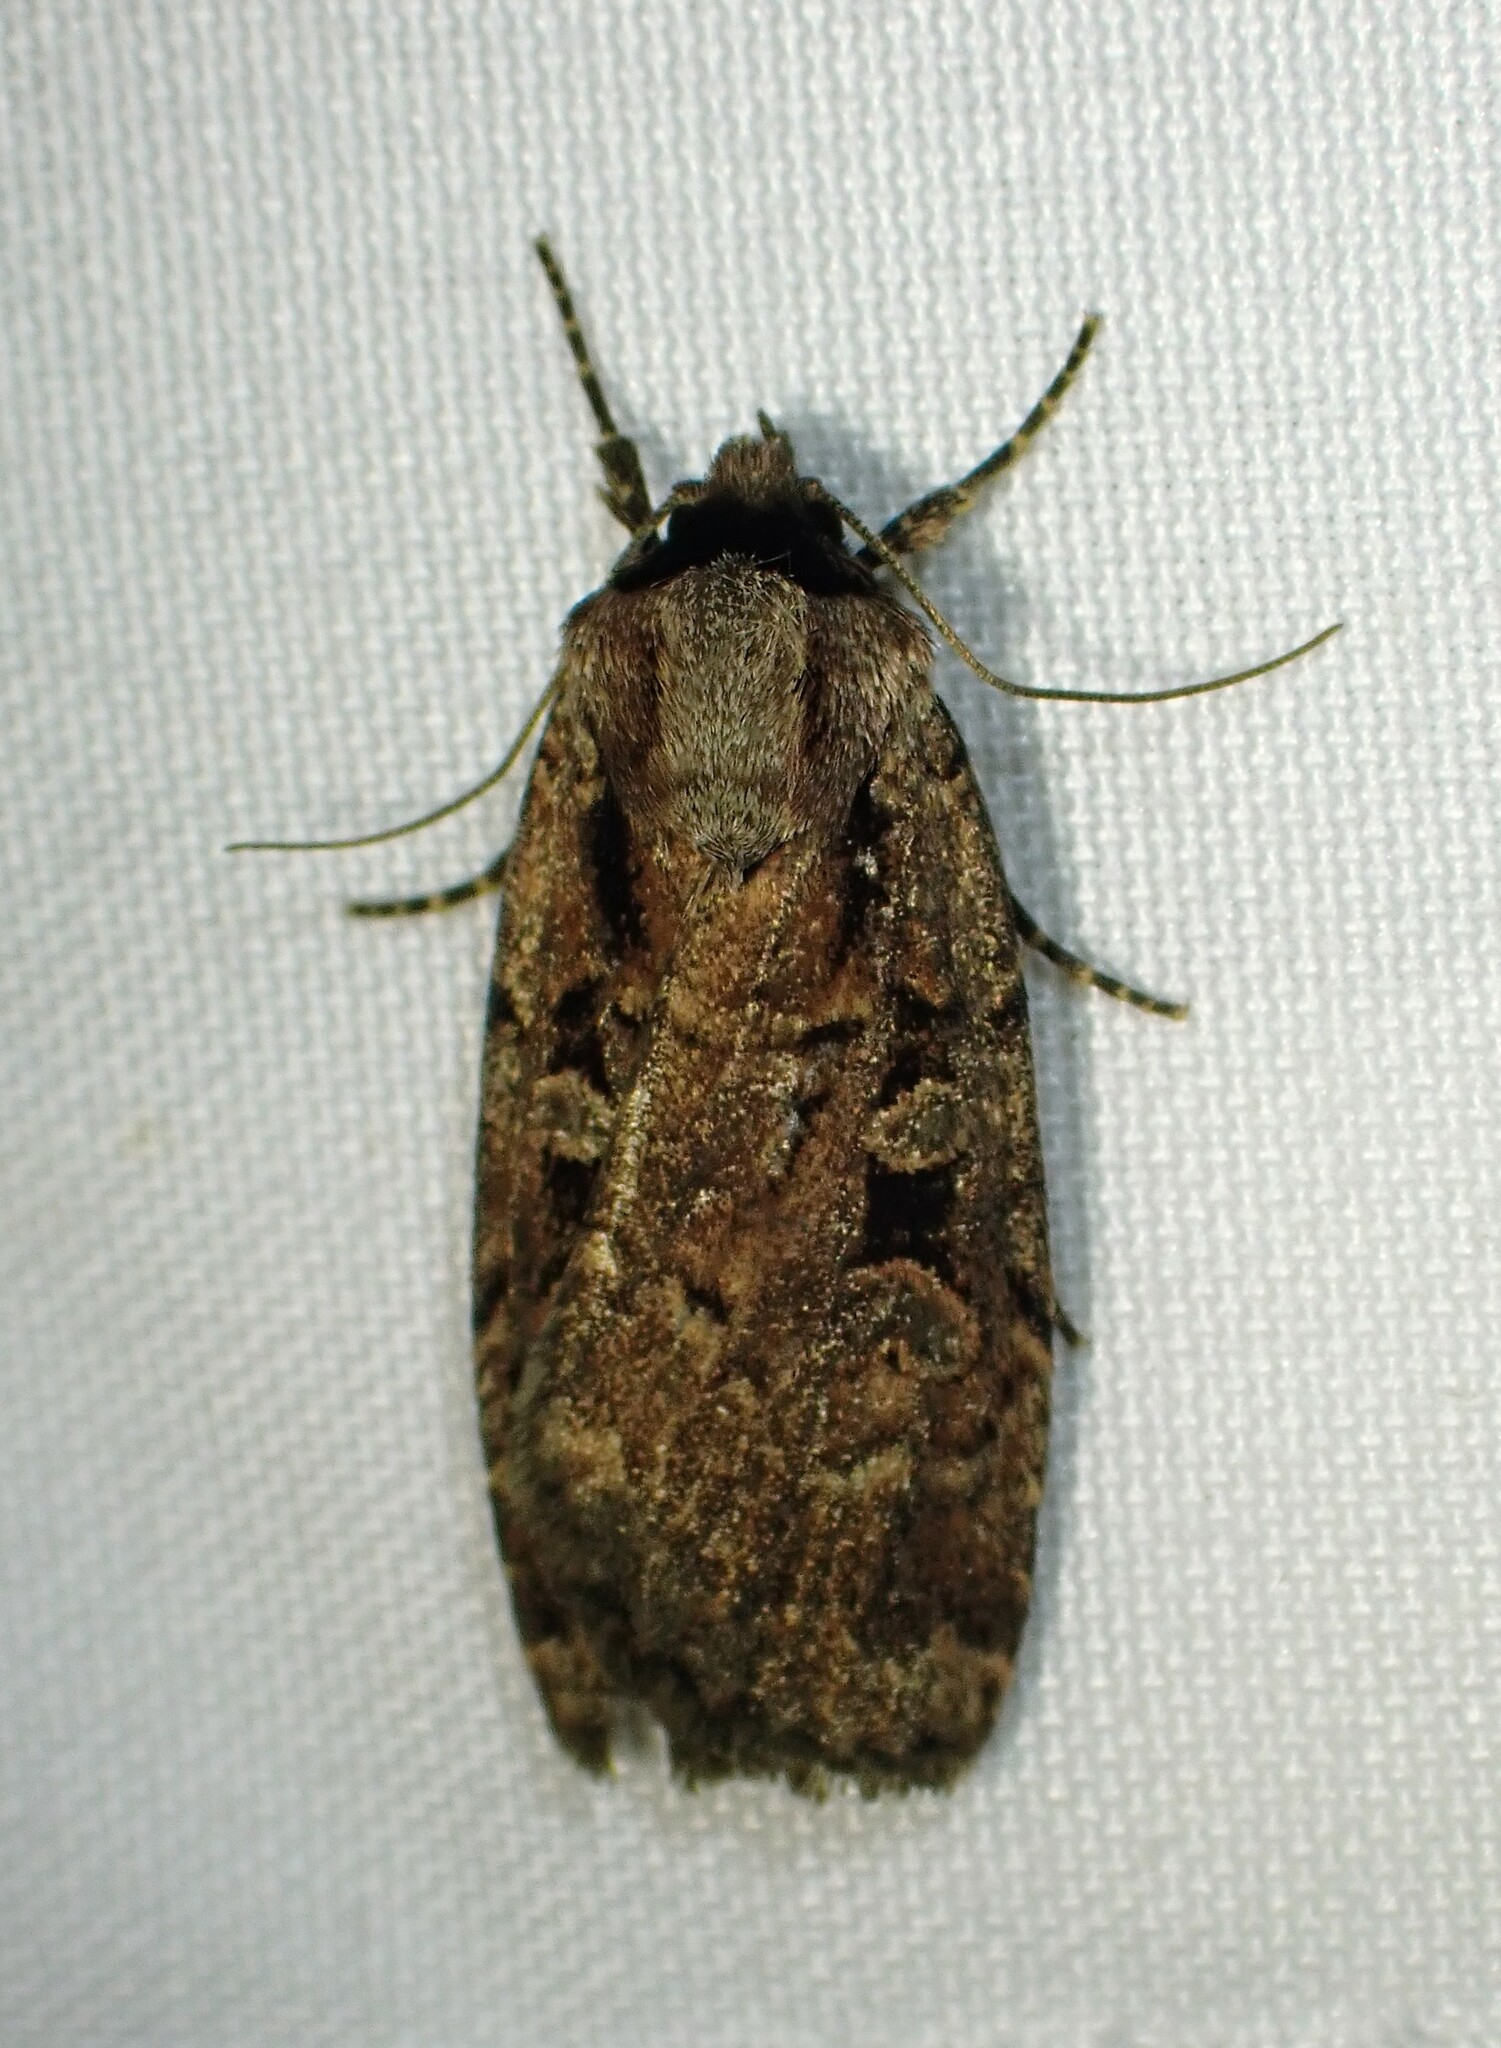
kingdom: Animalia
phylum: Arthropoda
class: Insecta
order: Lepidoptera
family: Noctuidae
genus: Eueretagrotis
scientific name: Eueretagrotis perattentus
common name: Two-spot dart moth
